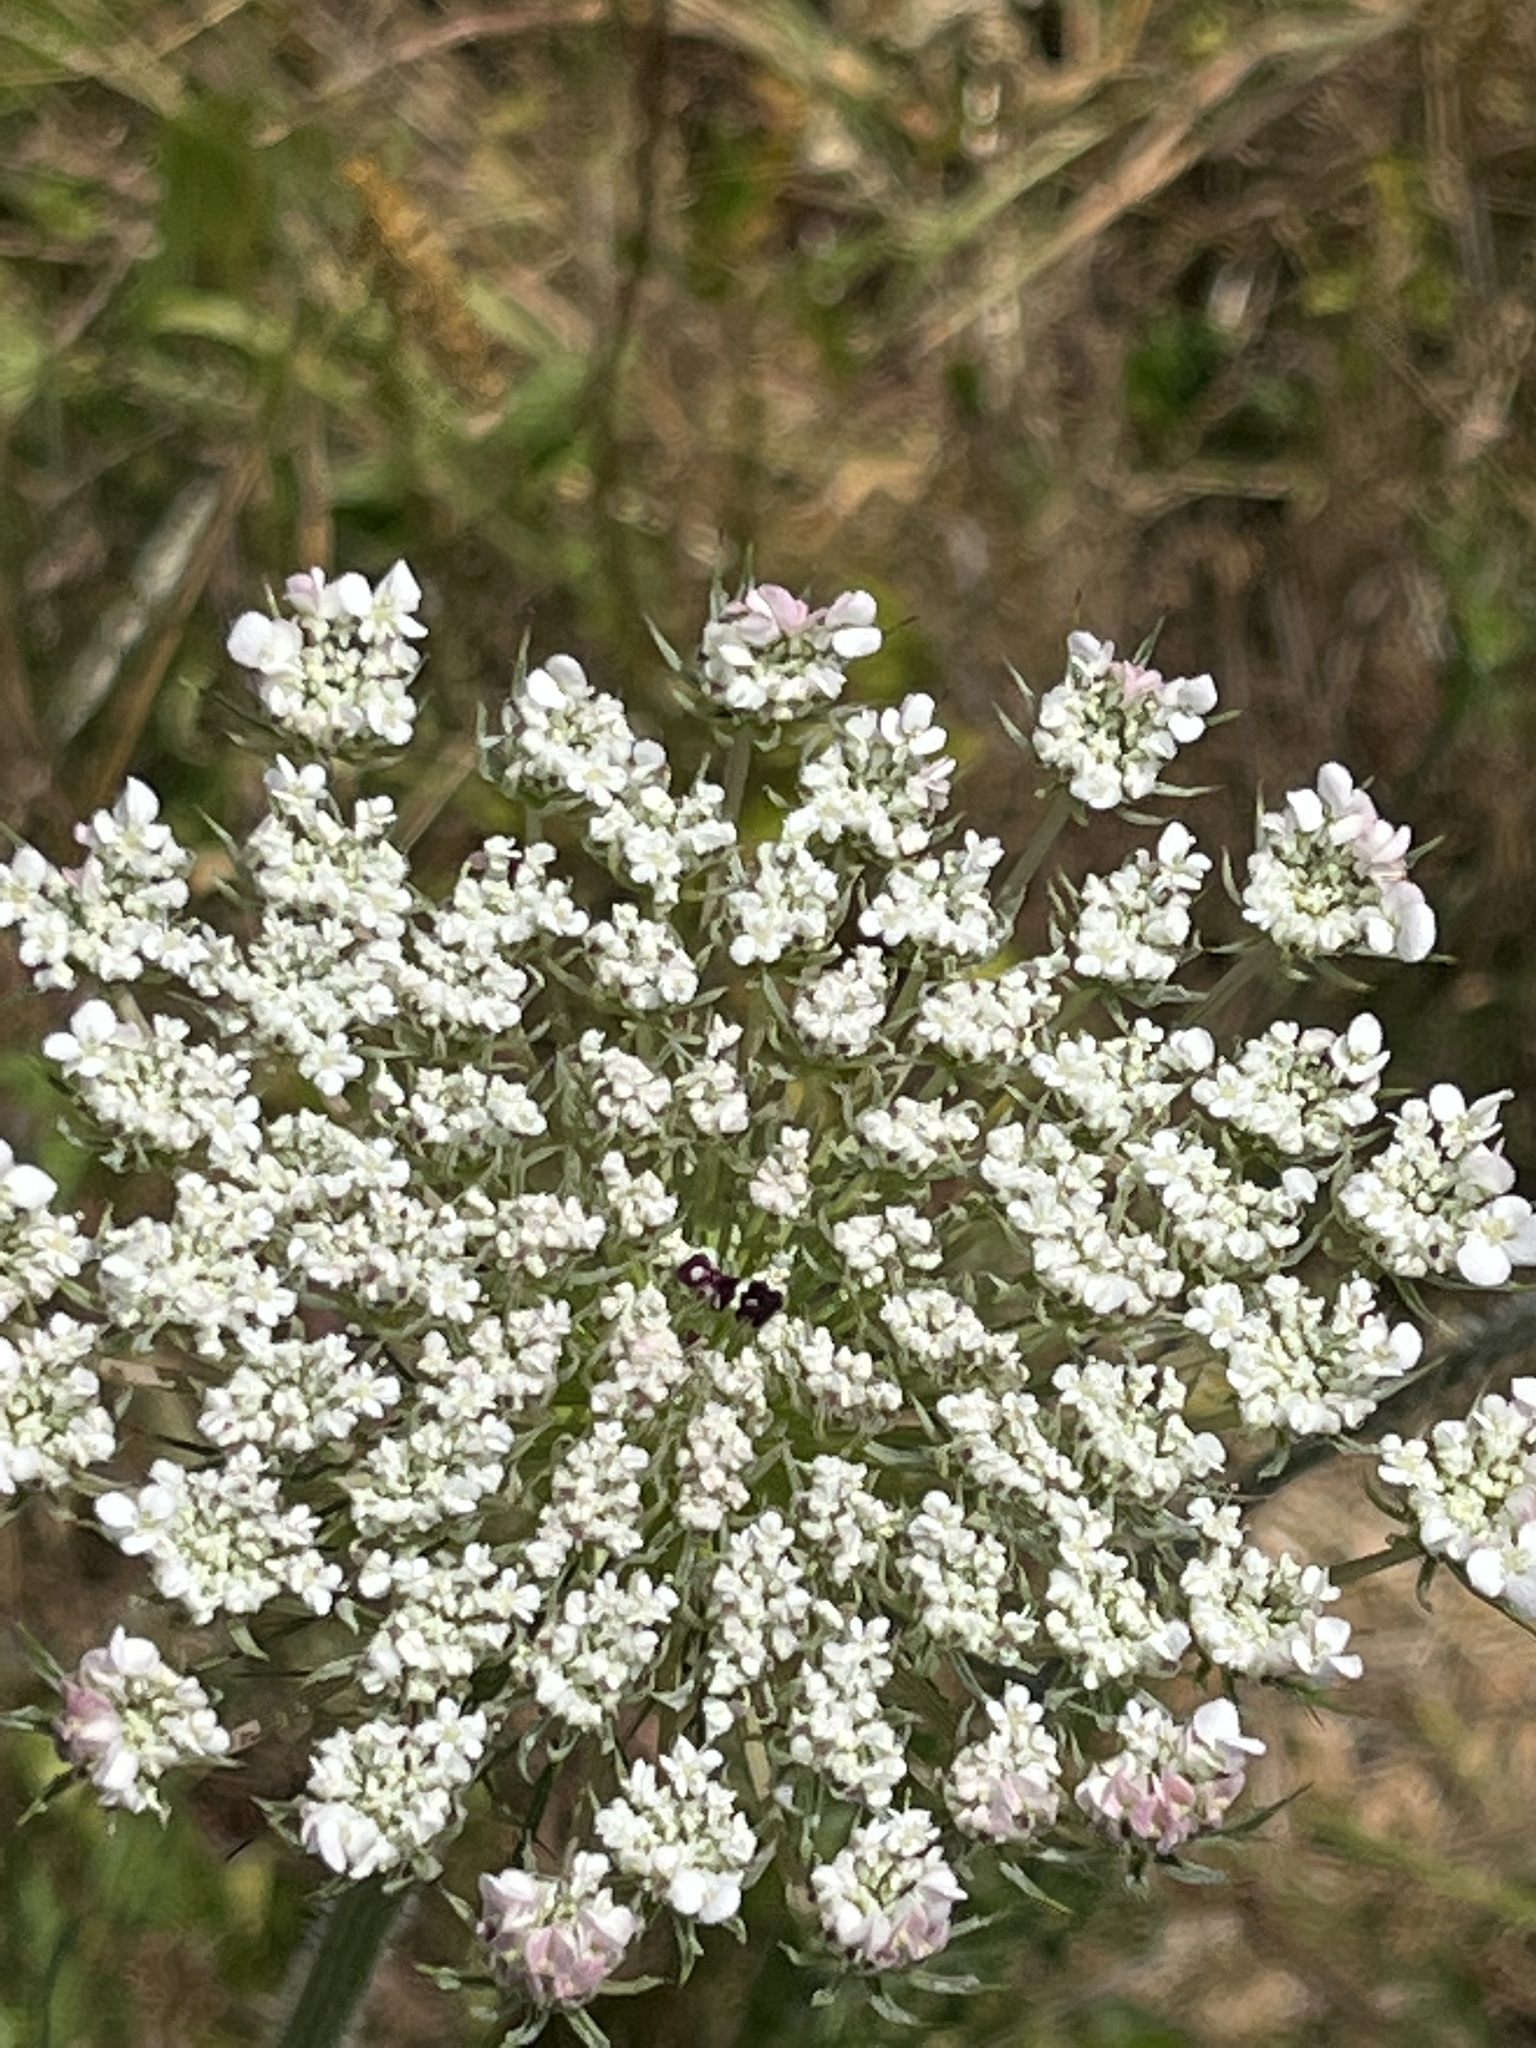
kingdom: Plantae
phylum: Tracheophyta
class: Magnoliopsida
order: Apiales
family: Apiaceae
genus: Daucus
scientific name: Daucus carota
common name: Wild carrot
